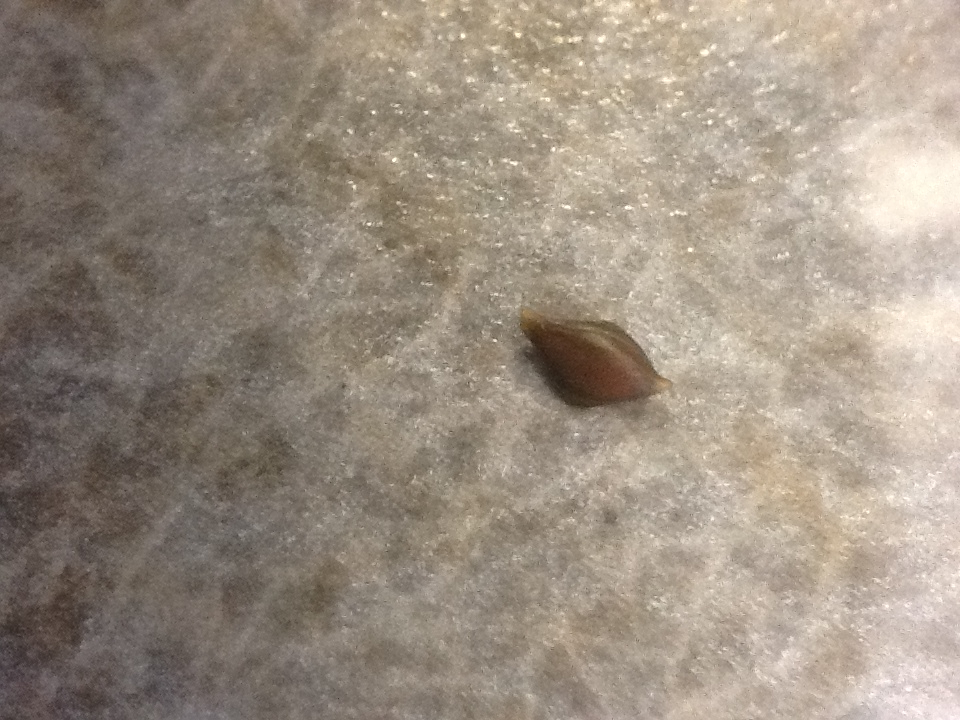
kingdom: Plantae
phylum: Tracheophyta
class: Liliopsida
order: Poales
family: Cyperaceae
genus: Carex
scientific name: Carex lupulina
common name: Hop sedge
